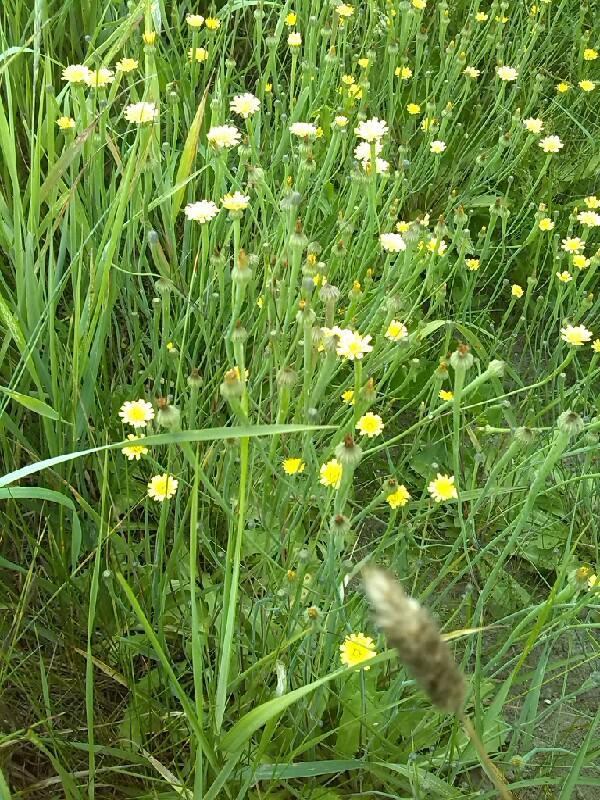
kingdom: Plantae
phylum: Tracheophyta
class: Magnoliopsida
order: Asterales
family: Asteraceae
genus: Arnoseris
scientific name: Arnoseris minima
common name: Lamb's succory
